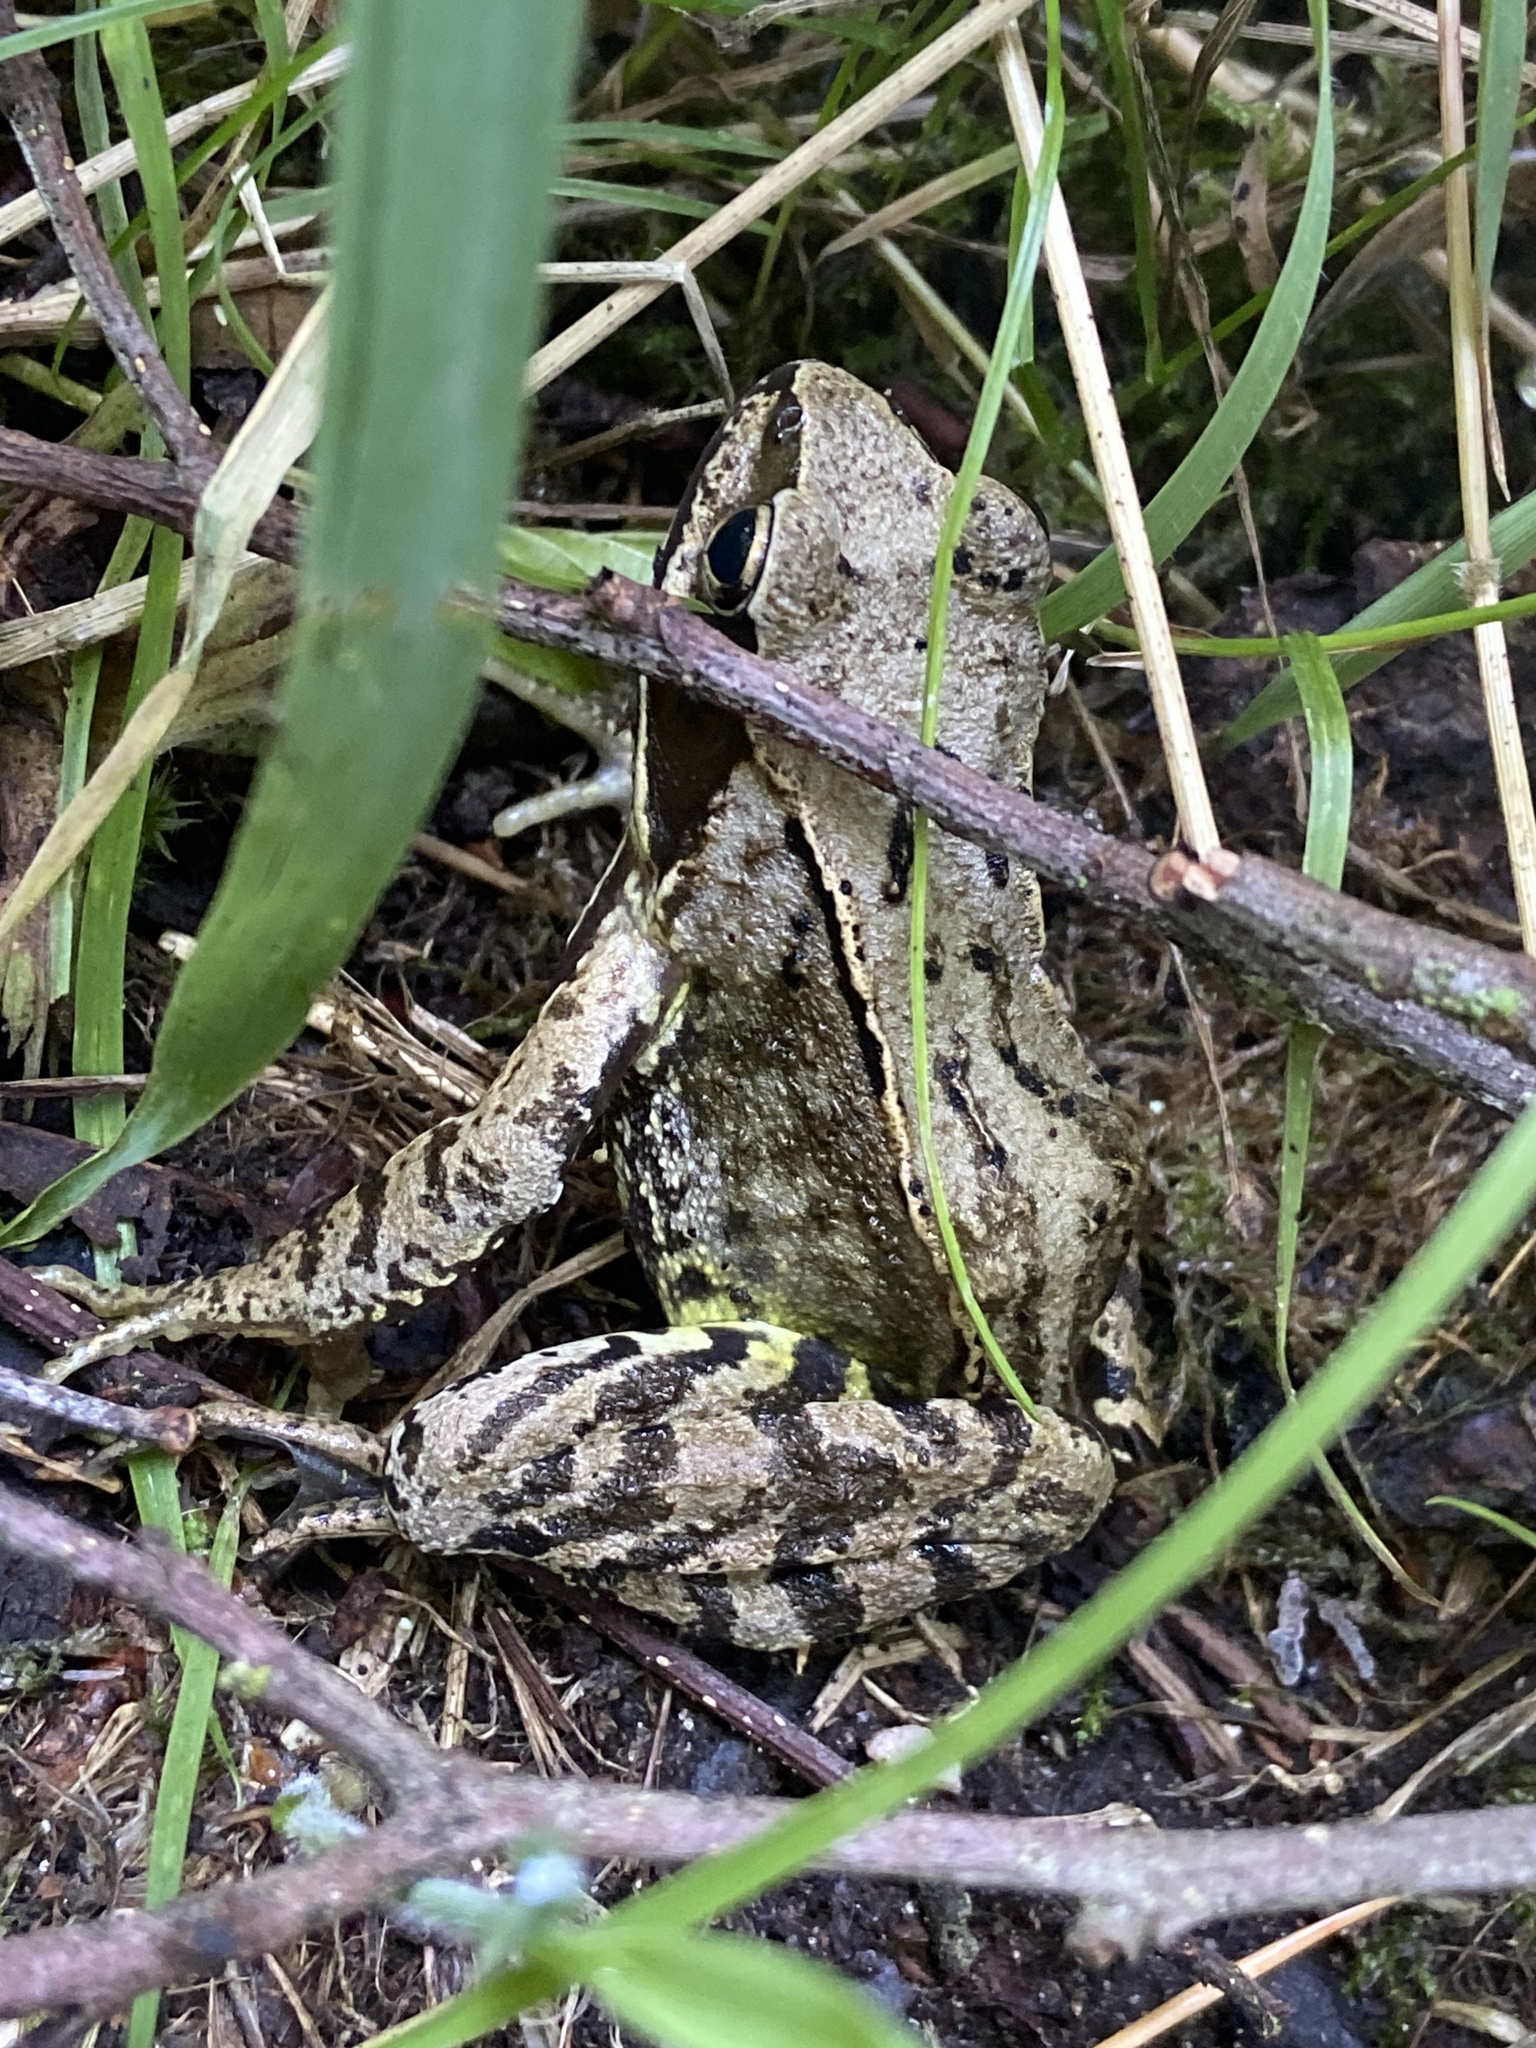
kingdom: Animalia
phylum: Chordata
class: Amphibia
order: Anura
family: Ranidae
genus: Rana
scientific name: Rana temporaria
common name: Common frog
